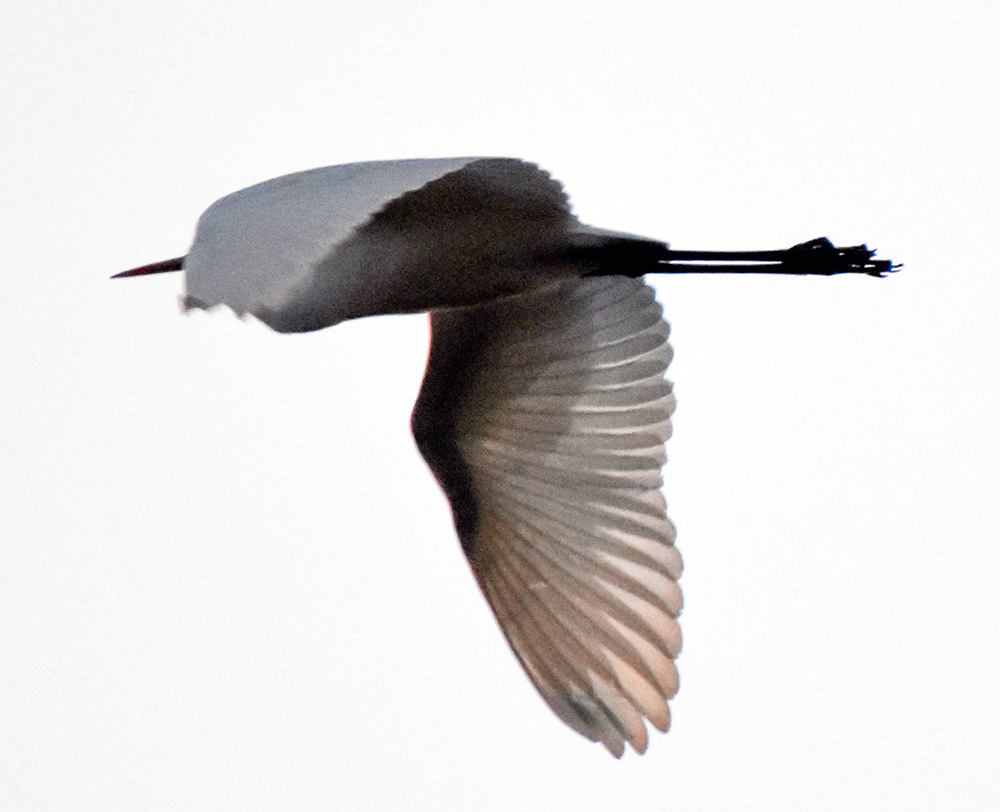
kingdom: Animalia
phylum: Chordata
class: Aves
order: Pelecaniformes
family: Ardeidae
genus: Ardea
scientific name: Ardea alba
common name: Great egret
